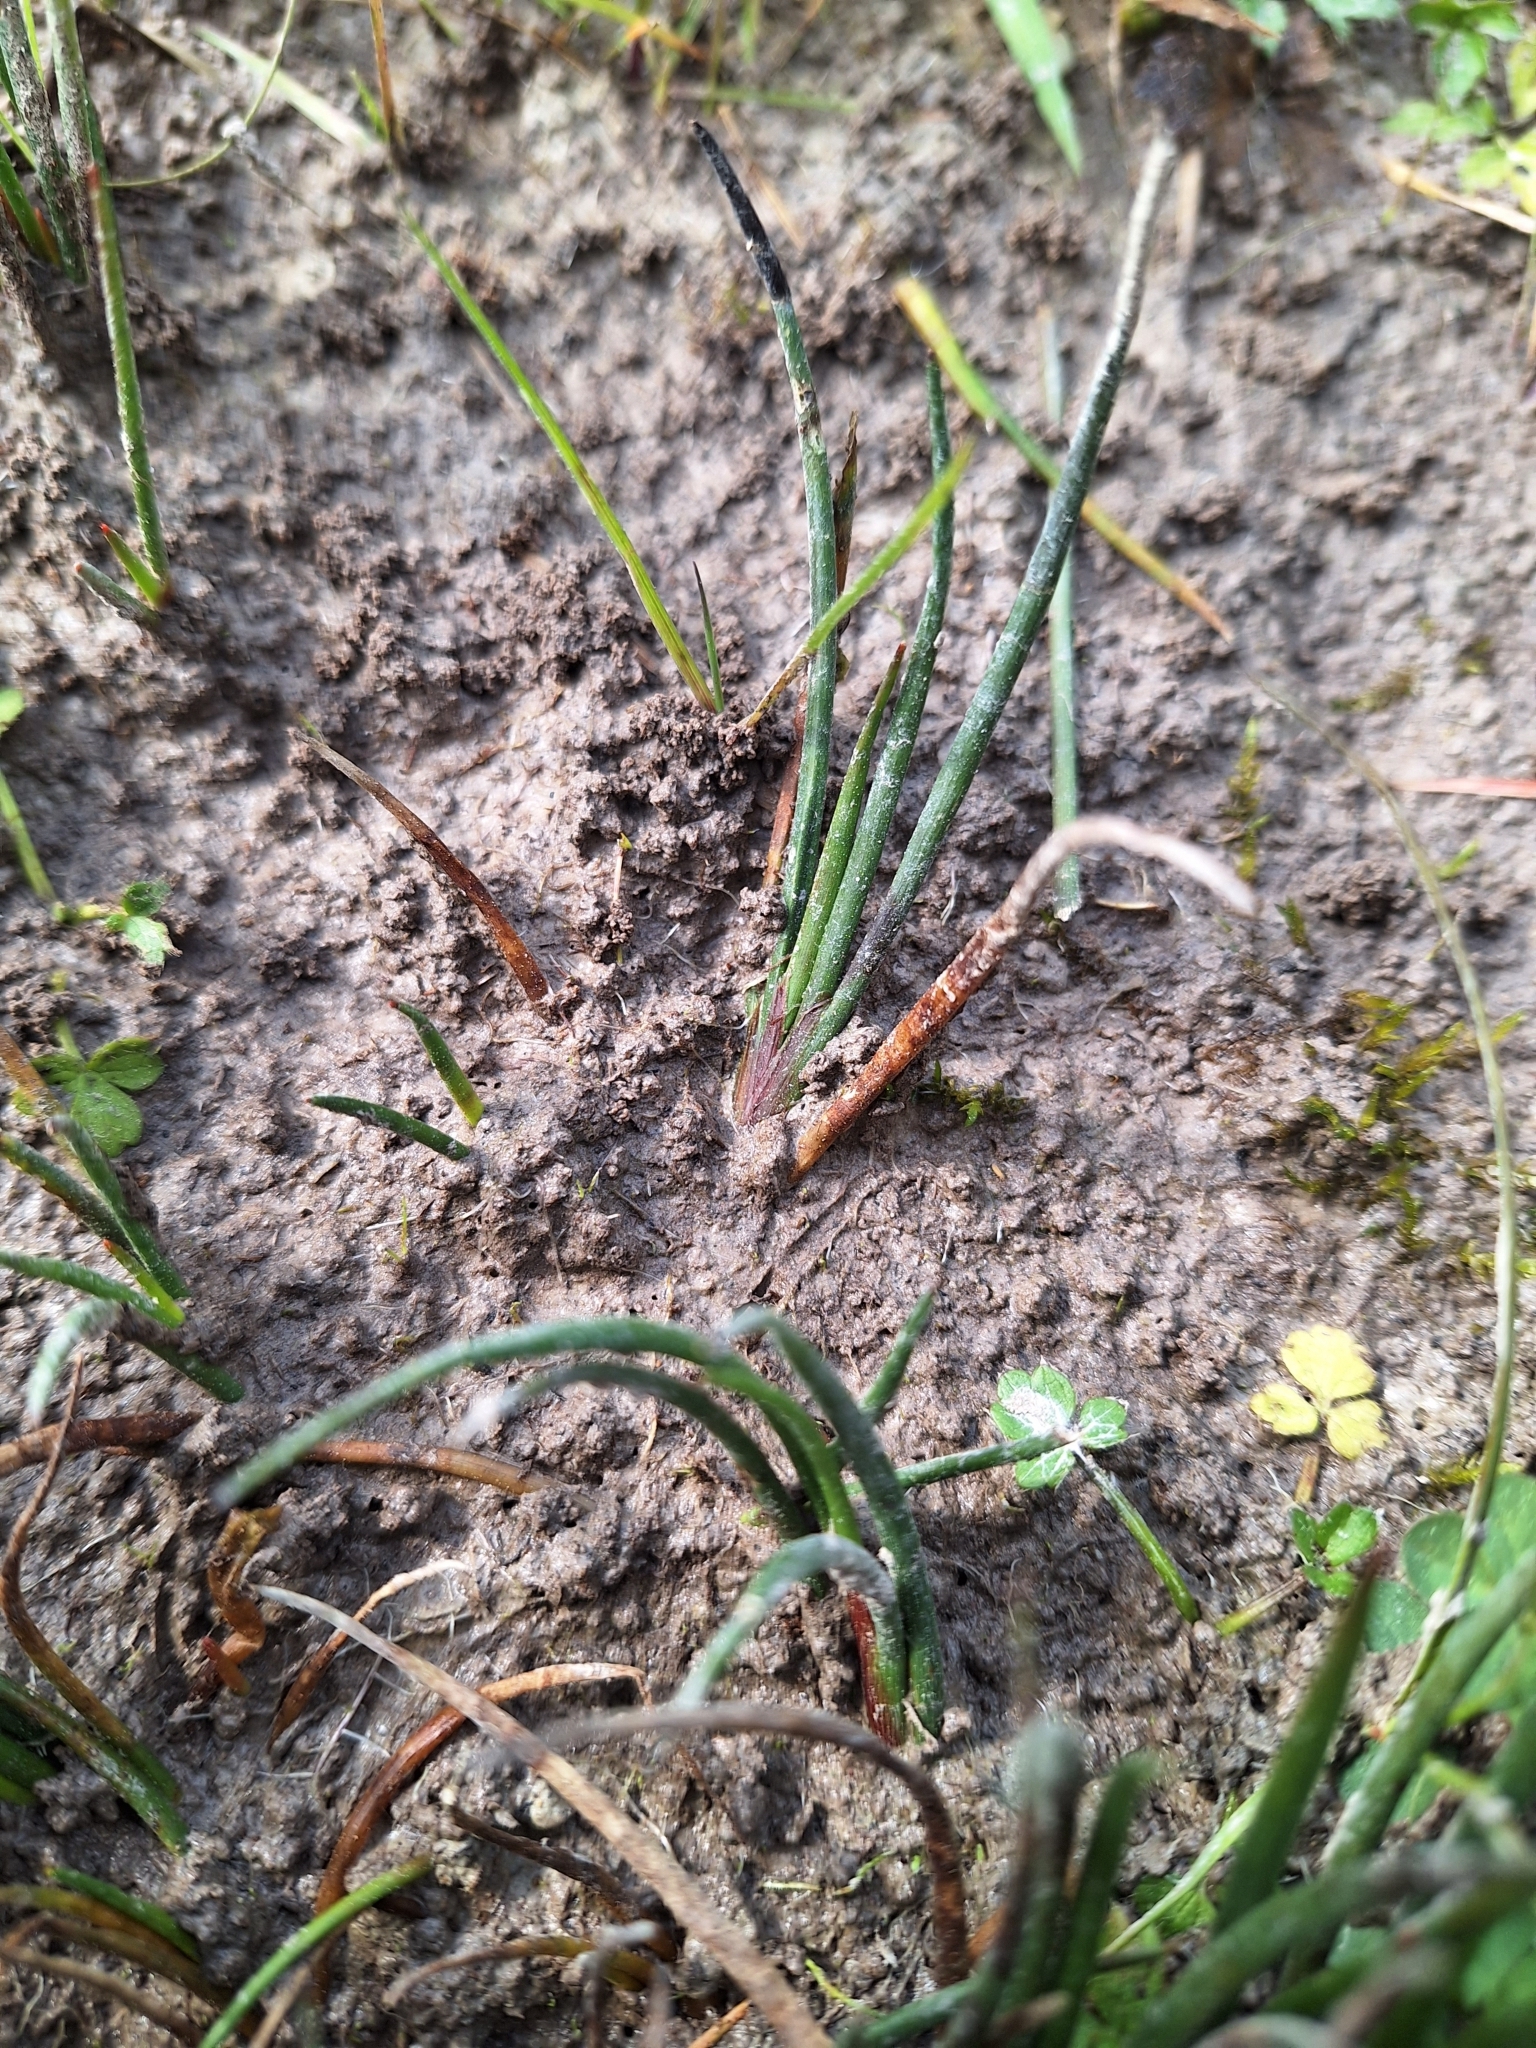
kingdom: Plantae
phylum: Tracheophyta
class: Liliopsida
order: Poales
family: Juncaceae
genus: Juncus
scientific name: Juncus articulatus
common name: Jointed rush
